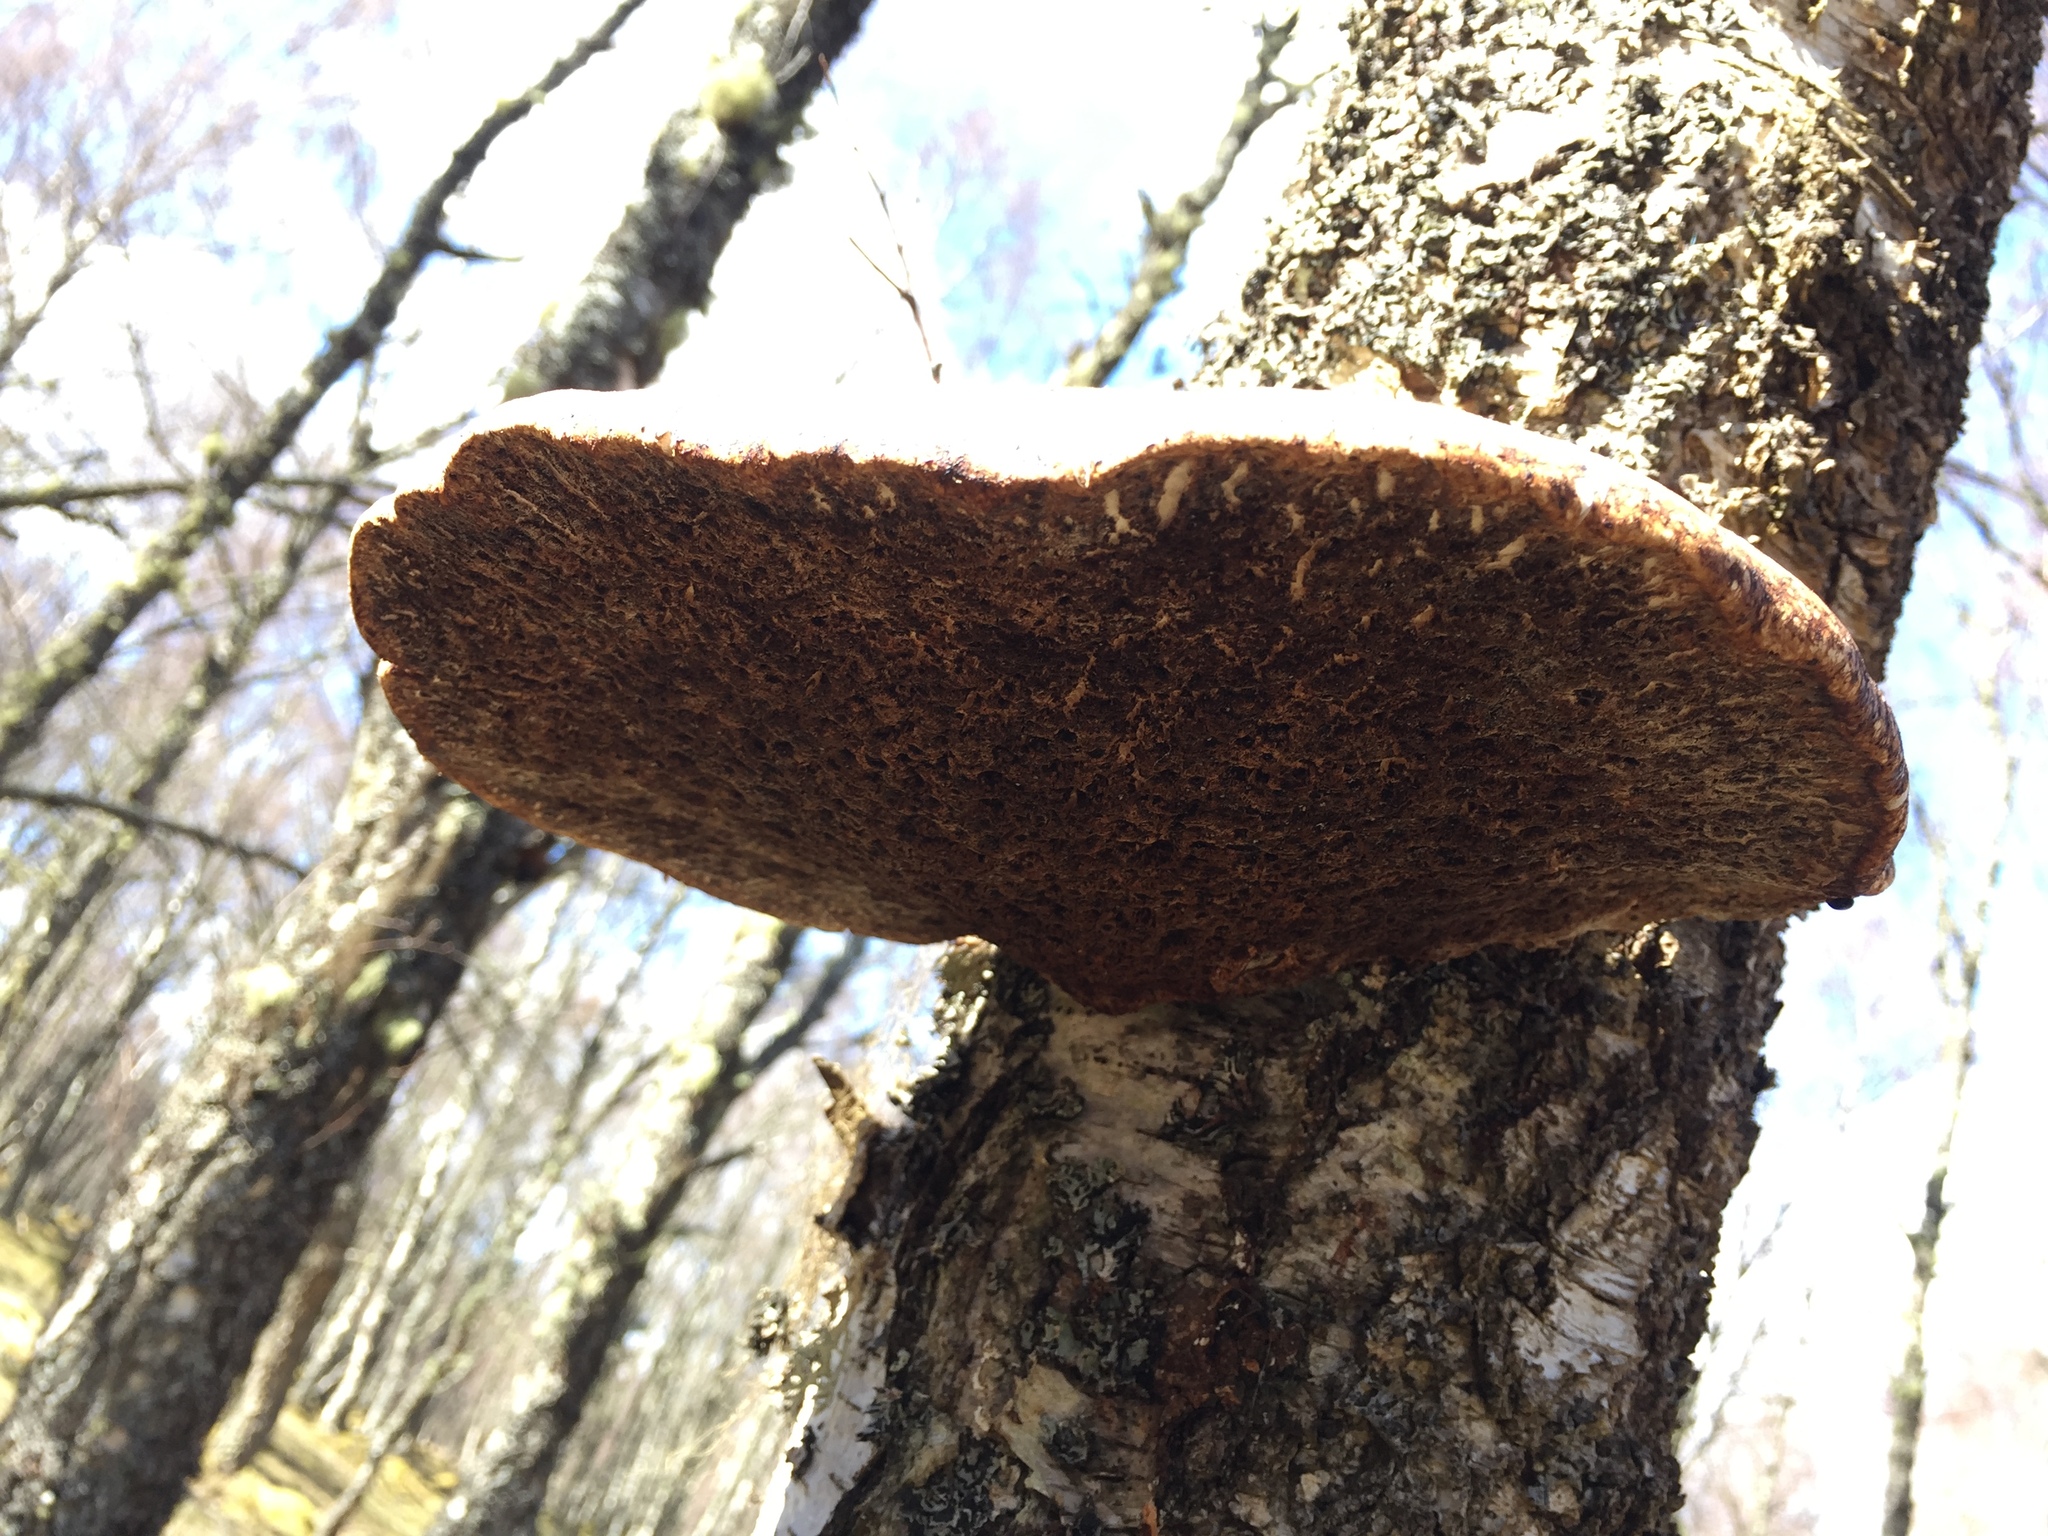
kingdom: Fungi
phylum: Basidiomycota
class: Agaricomycetes
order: Polyporales
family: Fomitopsidaceae
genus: Fomitopsis
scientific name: Fomitopsis betulina
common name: Birch polypore
